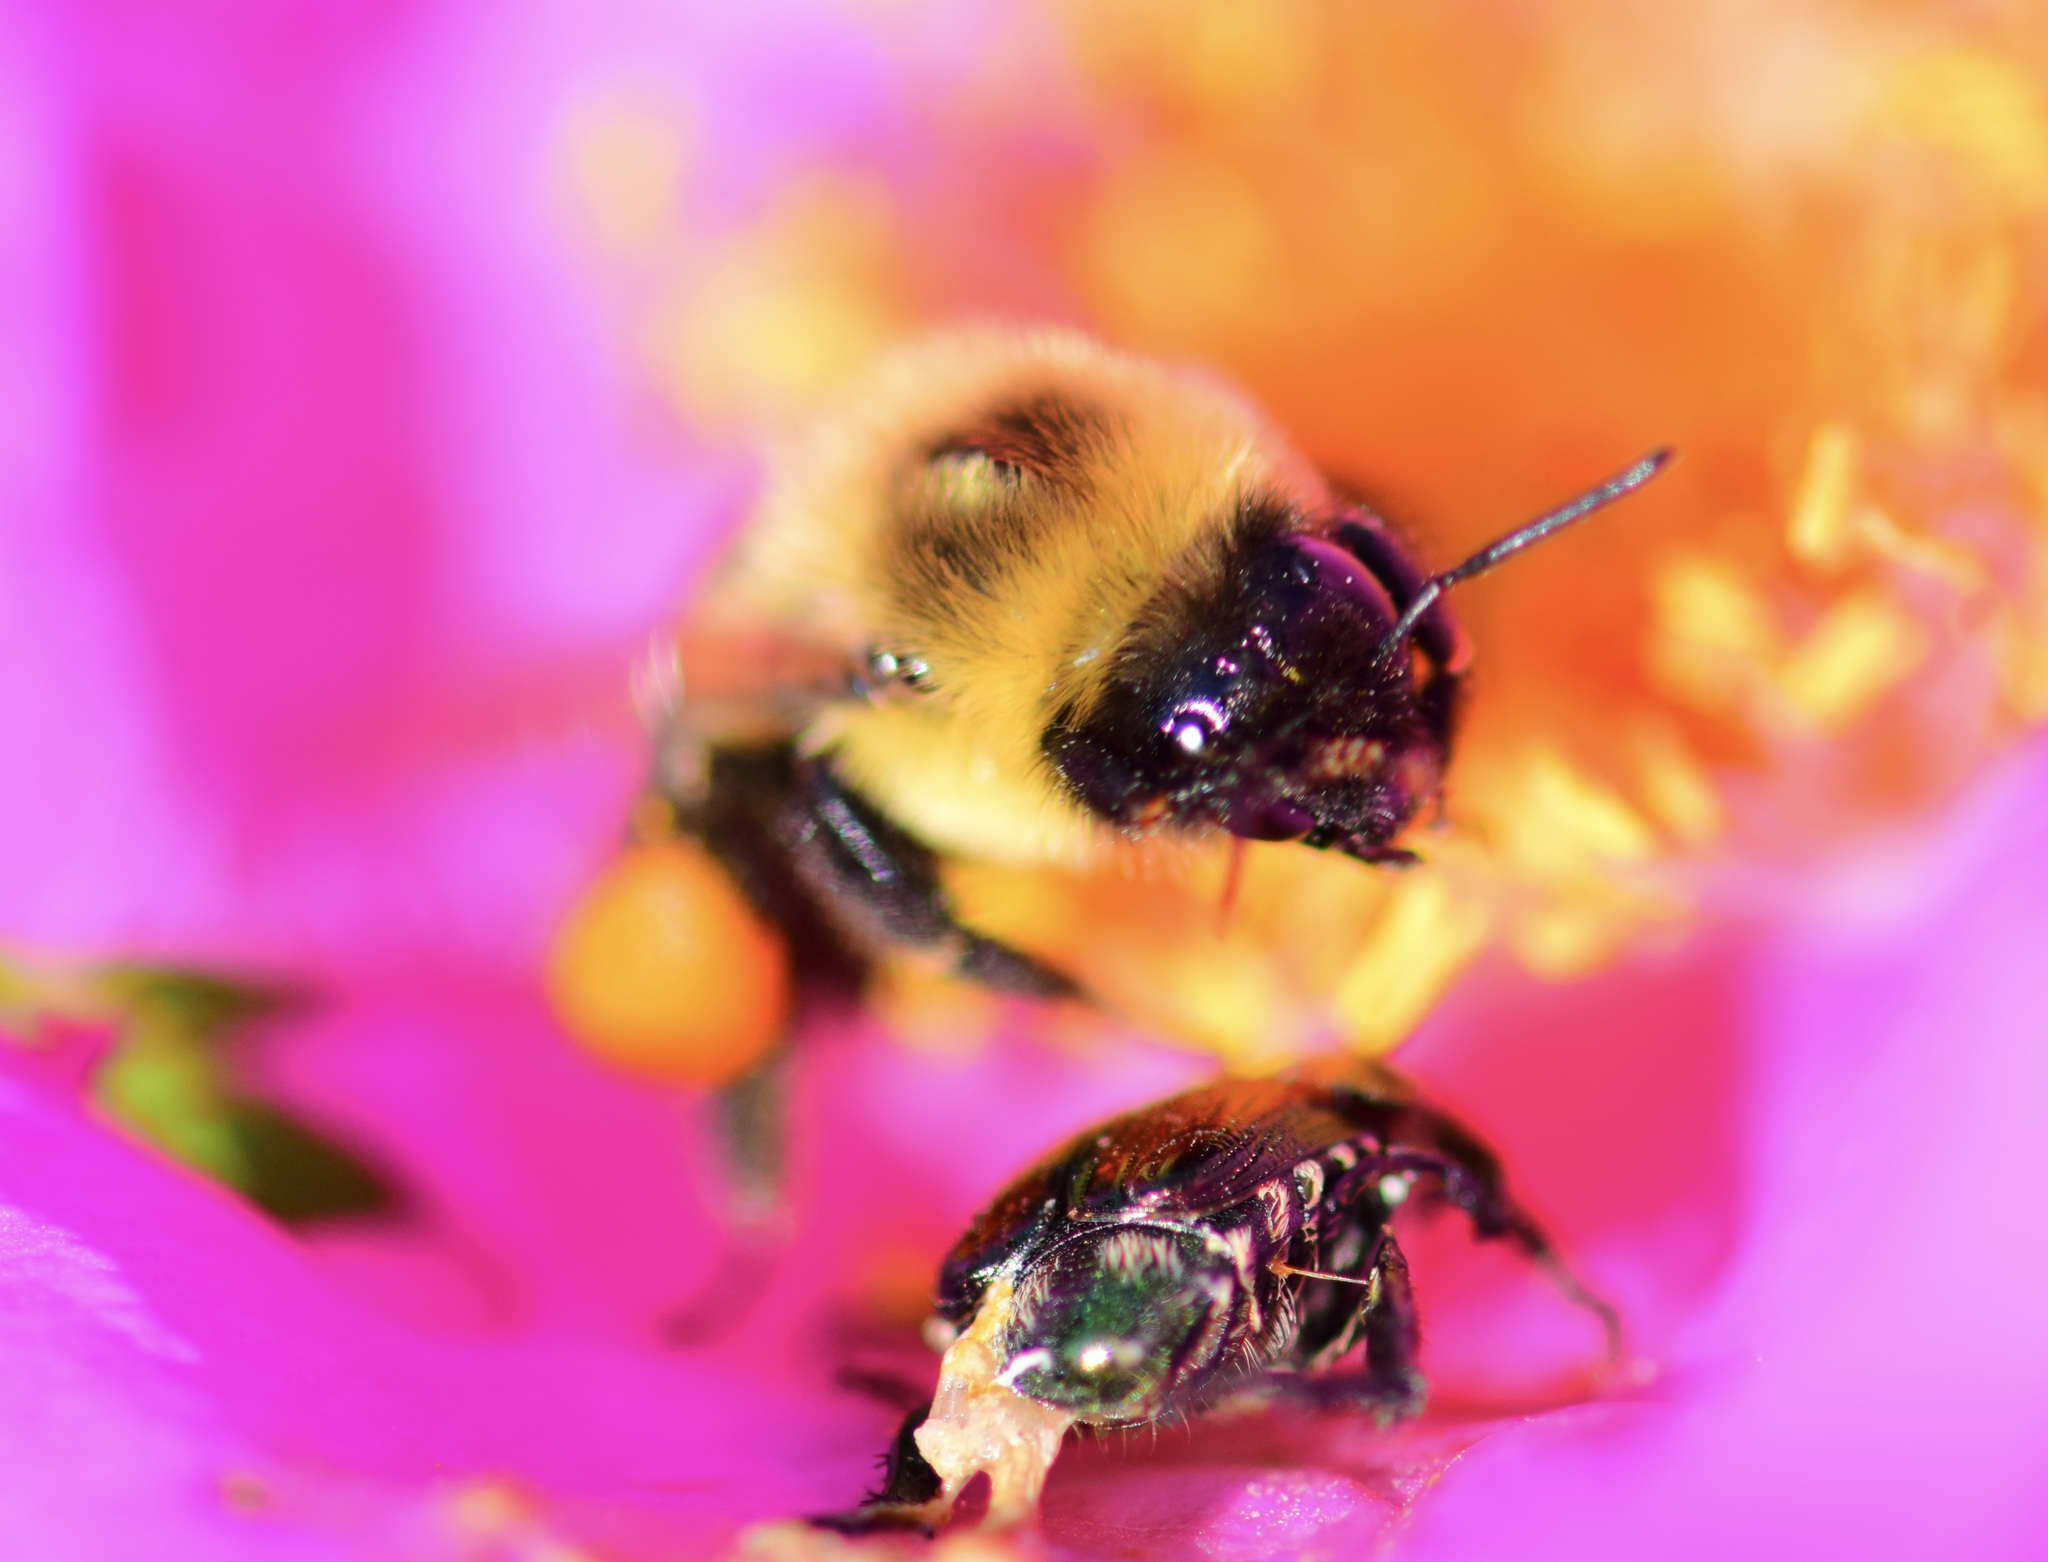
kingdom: Animalia
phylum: Arthropoda
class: Insecta
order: Hymenoptera
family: Apidae
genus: Bombus
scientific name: Bombus impatiens
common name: Common eastern bumble bee
